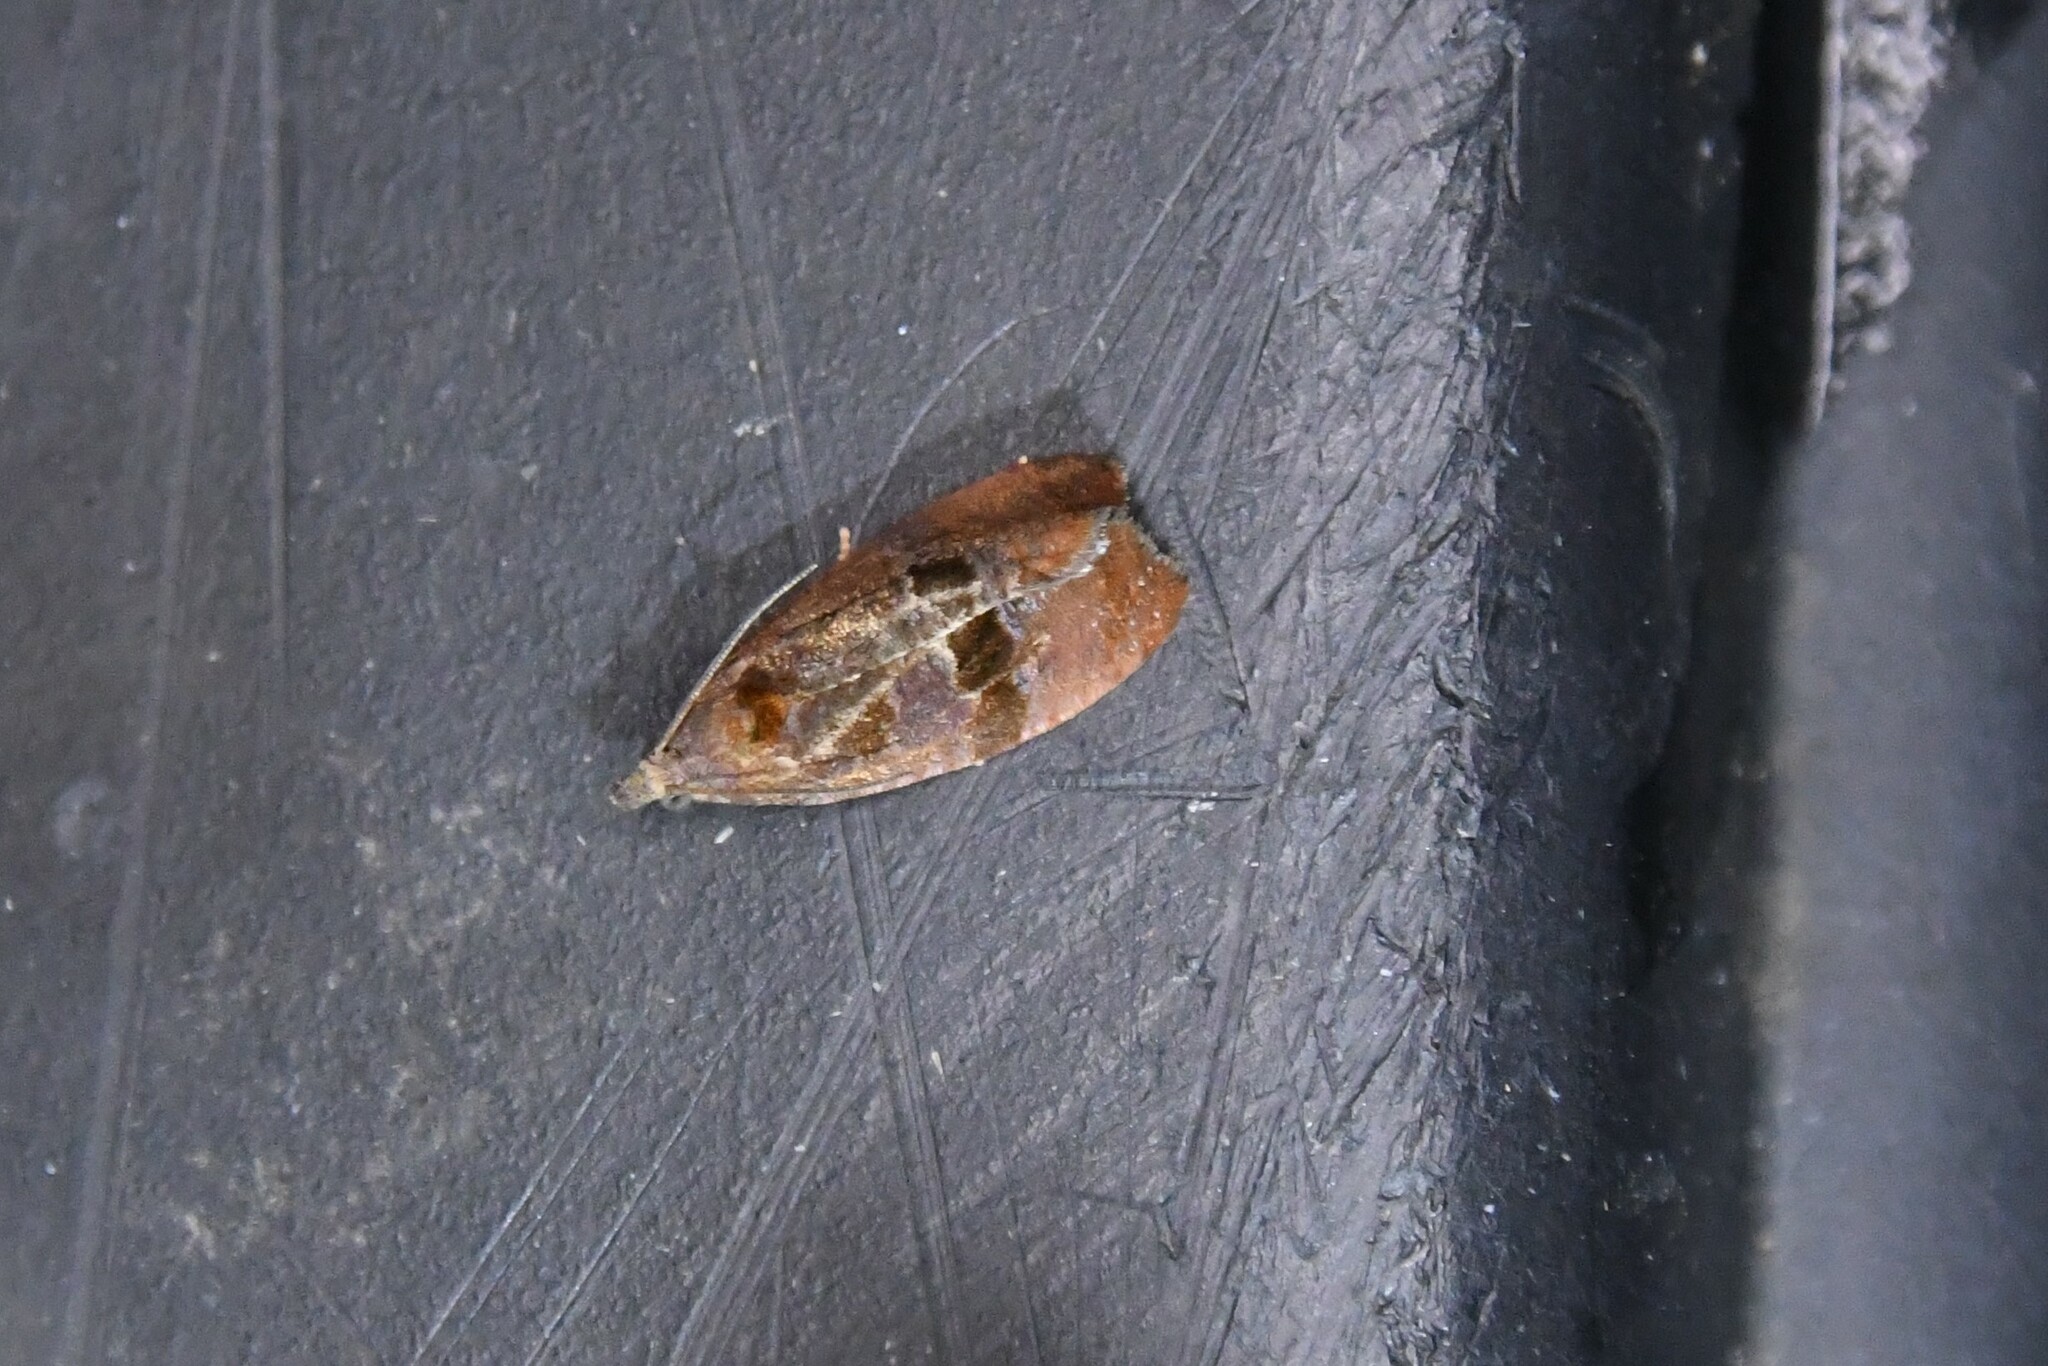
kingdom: Animalia
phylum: Arthropoda
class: Insecta
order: Lepidoptera
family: Tortricidae
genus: Evora
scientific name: Evora hemidesma
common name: Spirea leaftier moth
